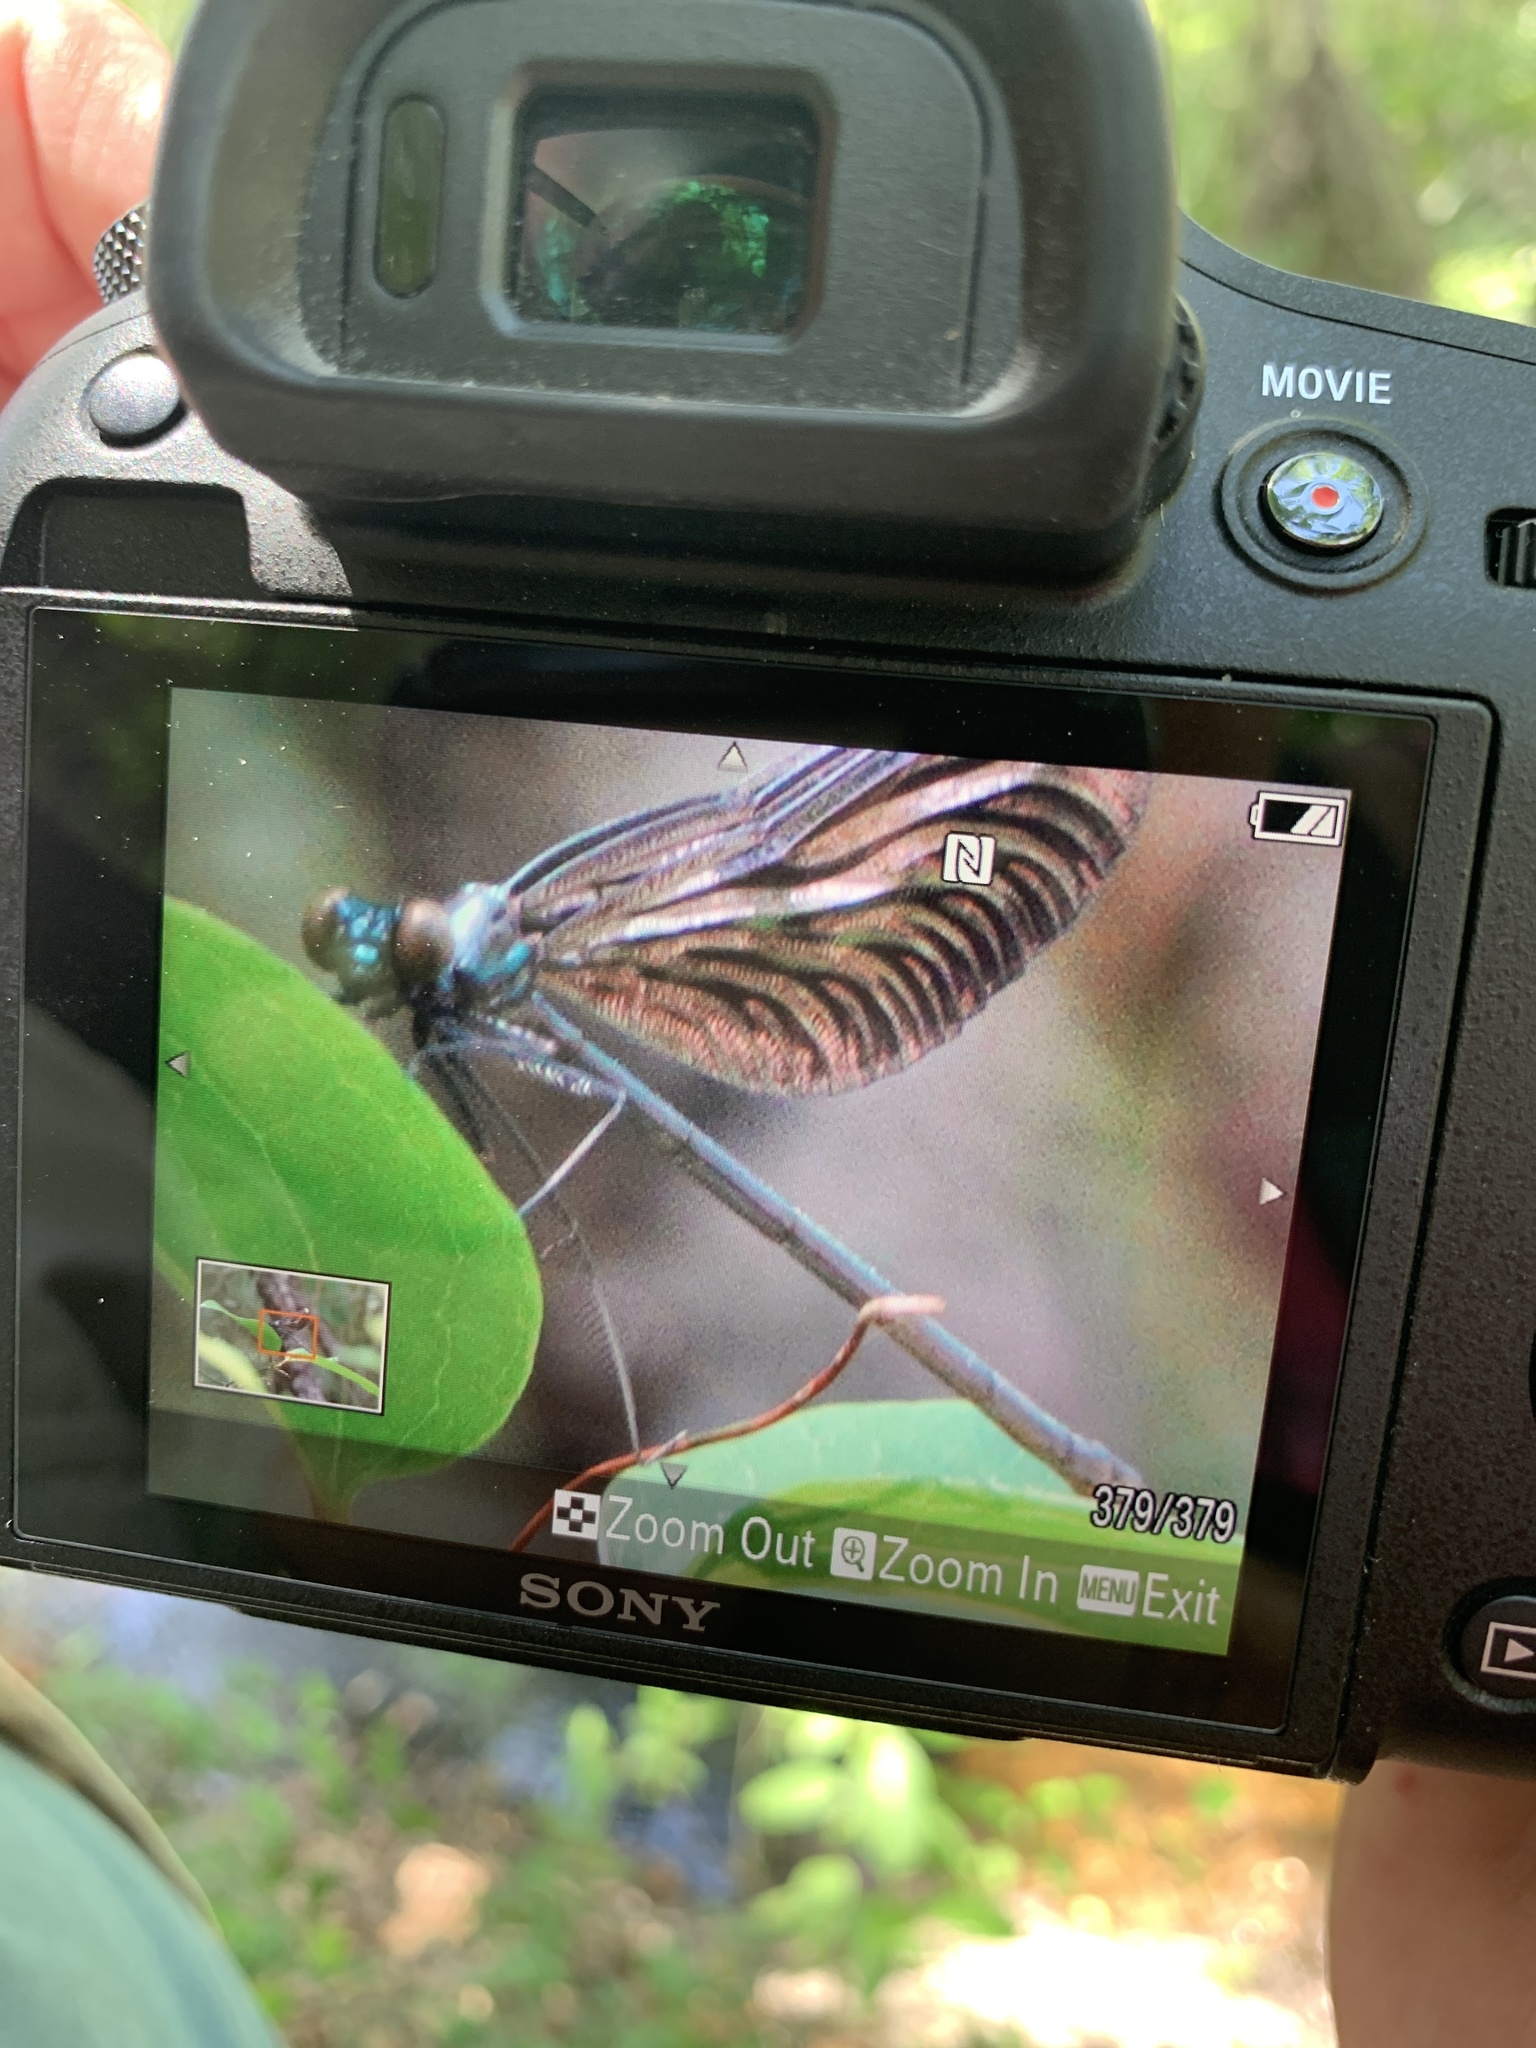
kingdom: Animalia
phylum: Arthropoda
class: Insecta
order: Odonata
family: Calopterygidae
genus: Calopteryx
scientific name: Calopteryx maculata
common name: Ebony jewelwing
